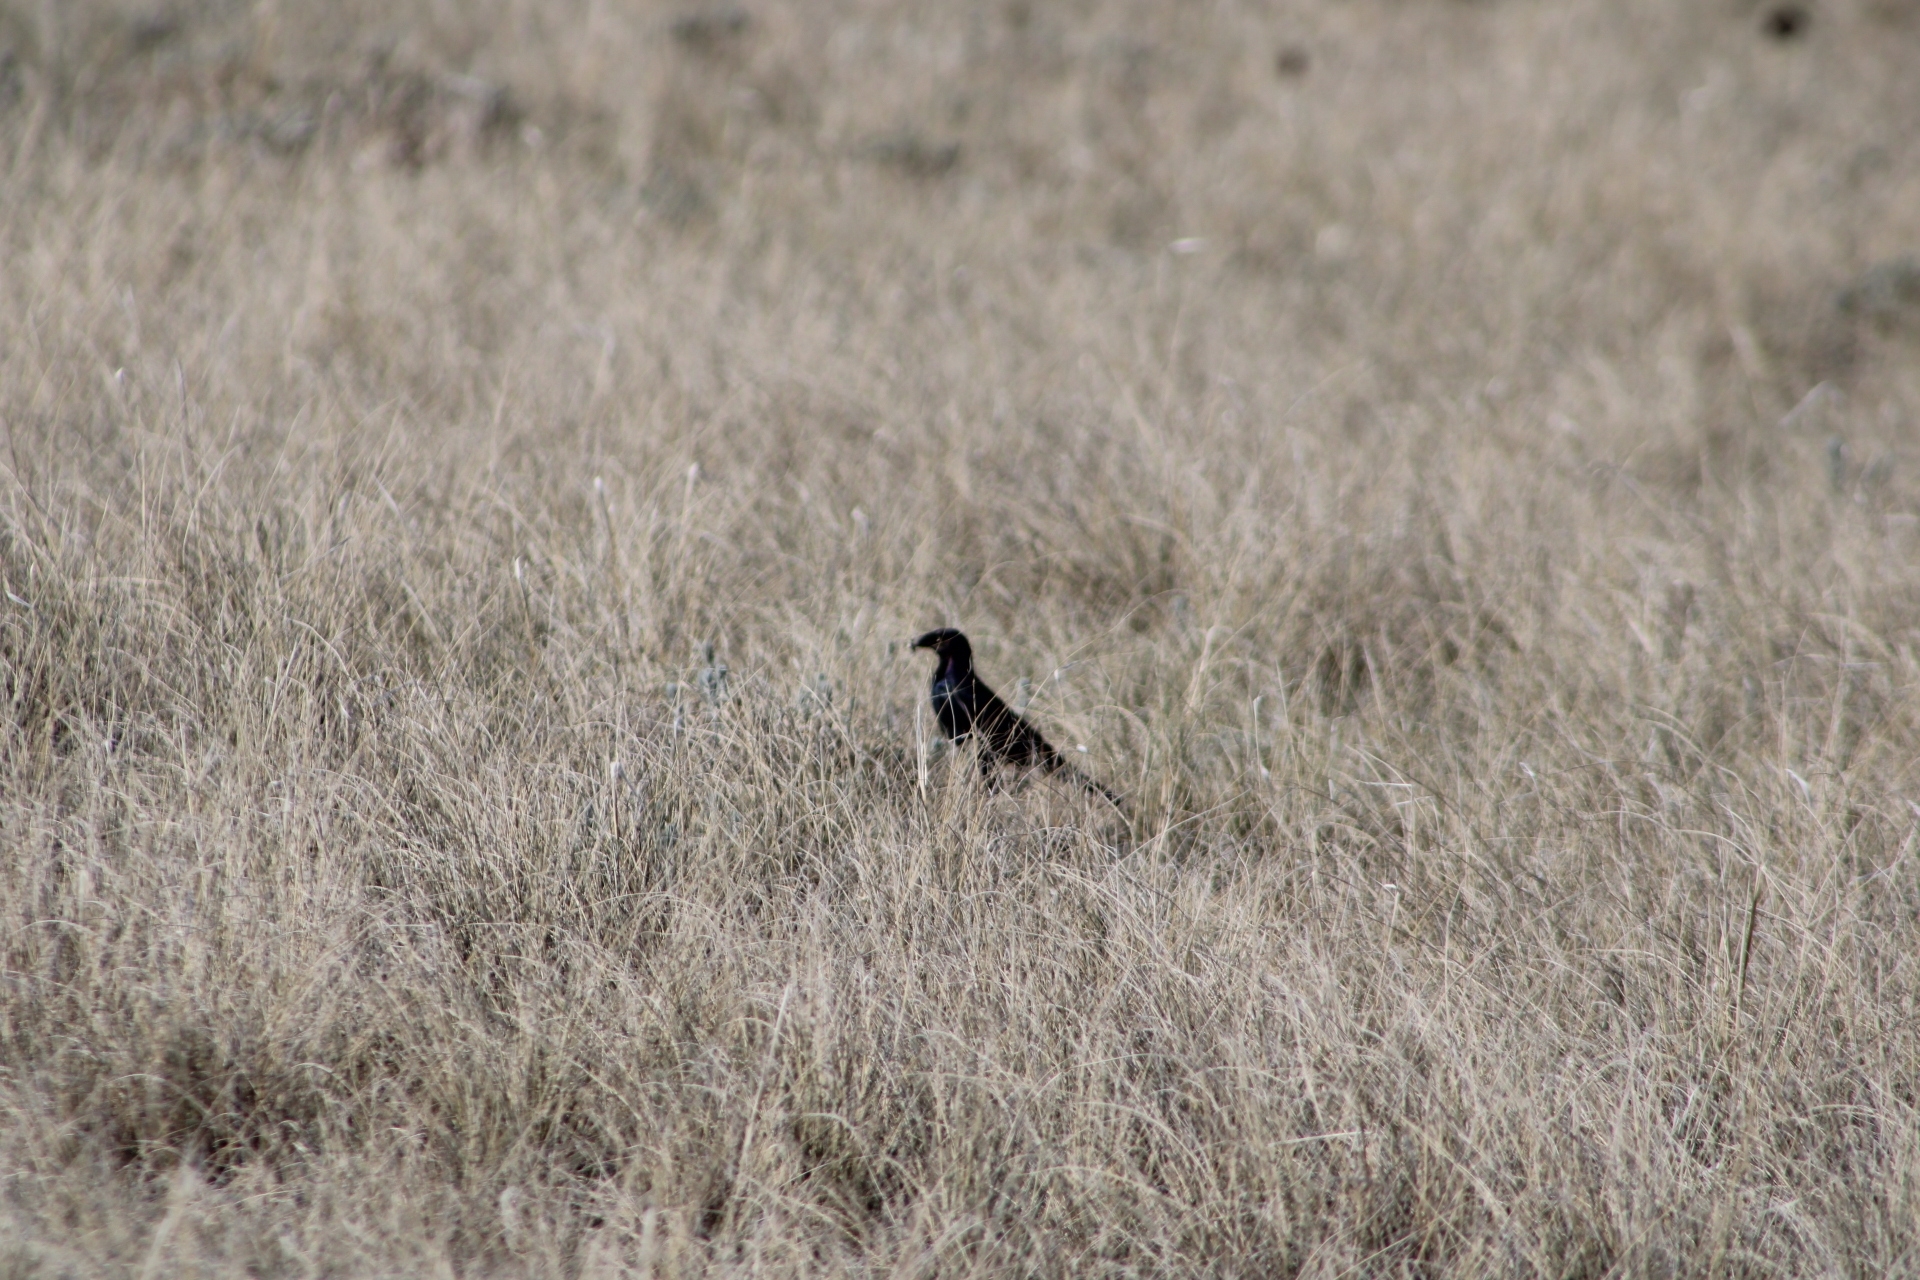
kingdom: Animalia
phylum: Chordata
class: Aves
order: Passeriformes
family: Icteridae
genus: Euphagus
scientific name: Euphagus cyanocephalus
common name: Brewer's blackbird
